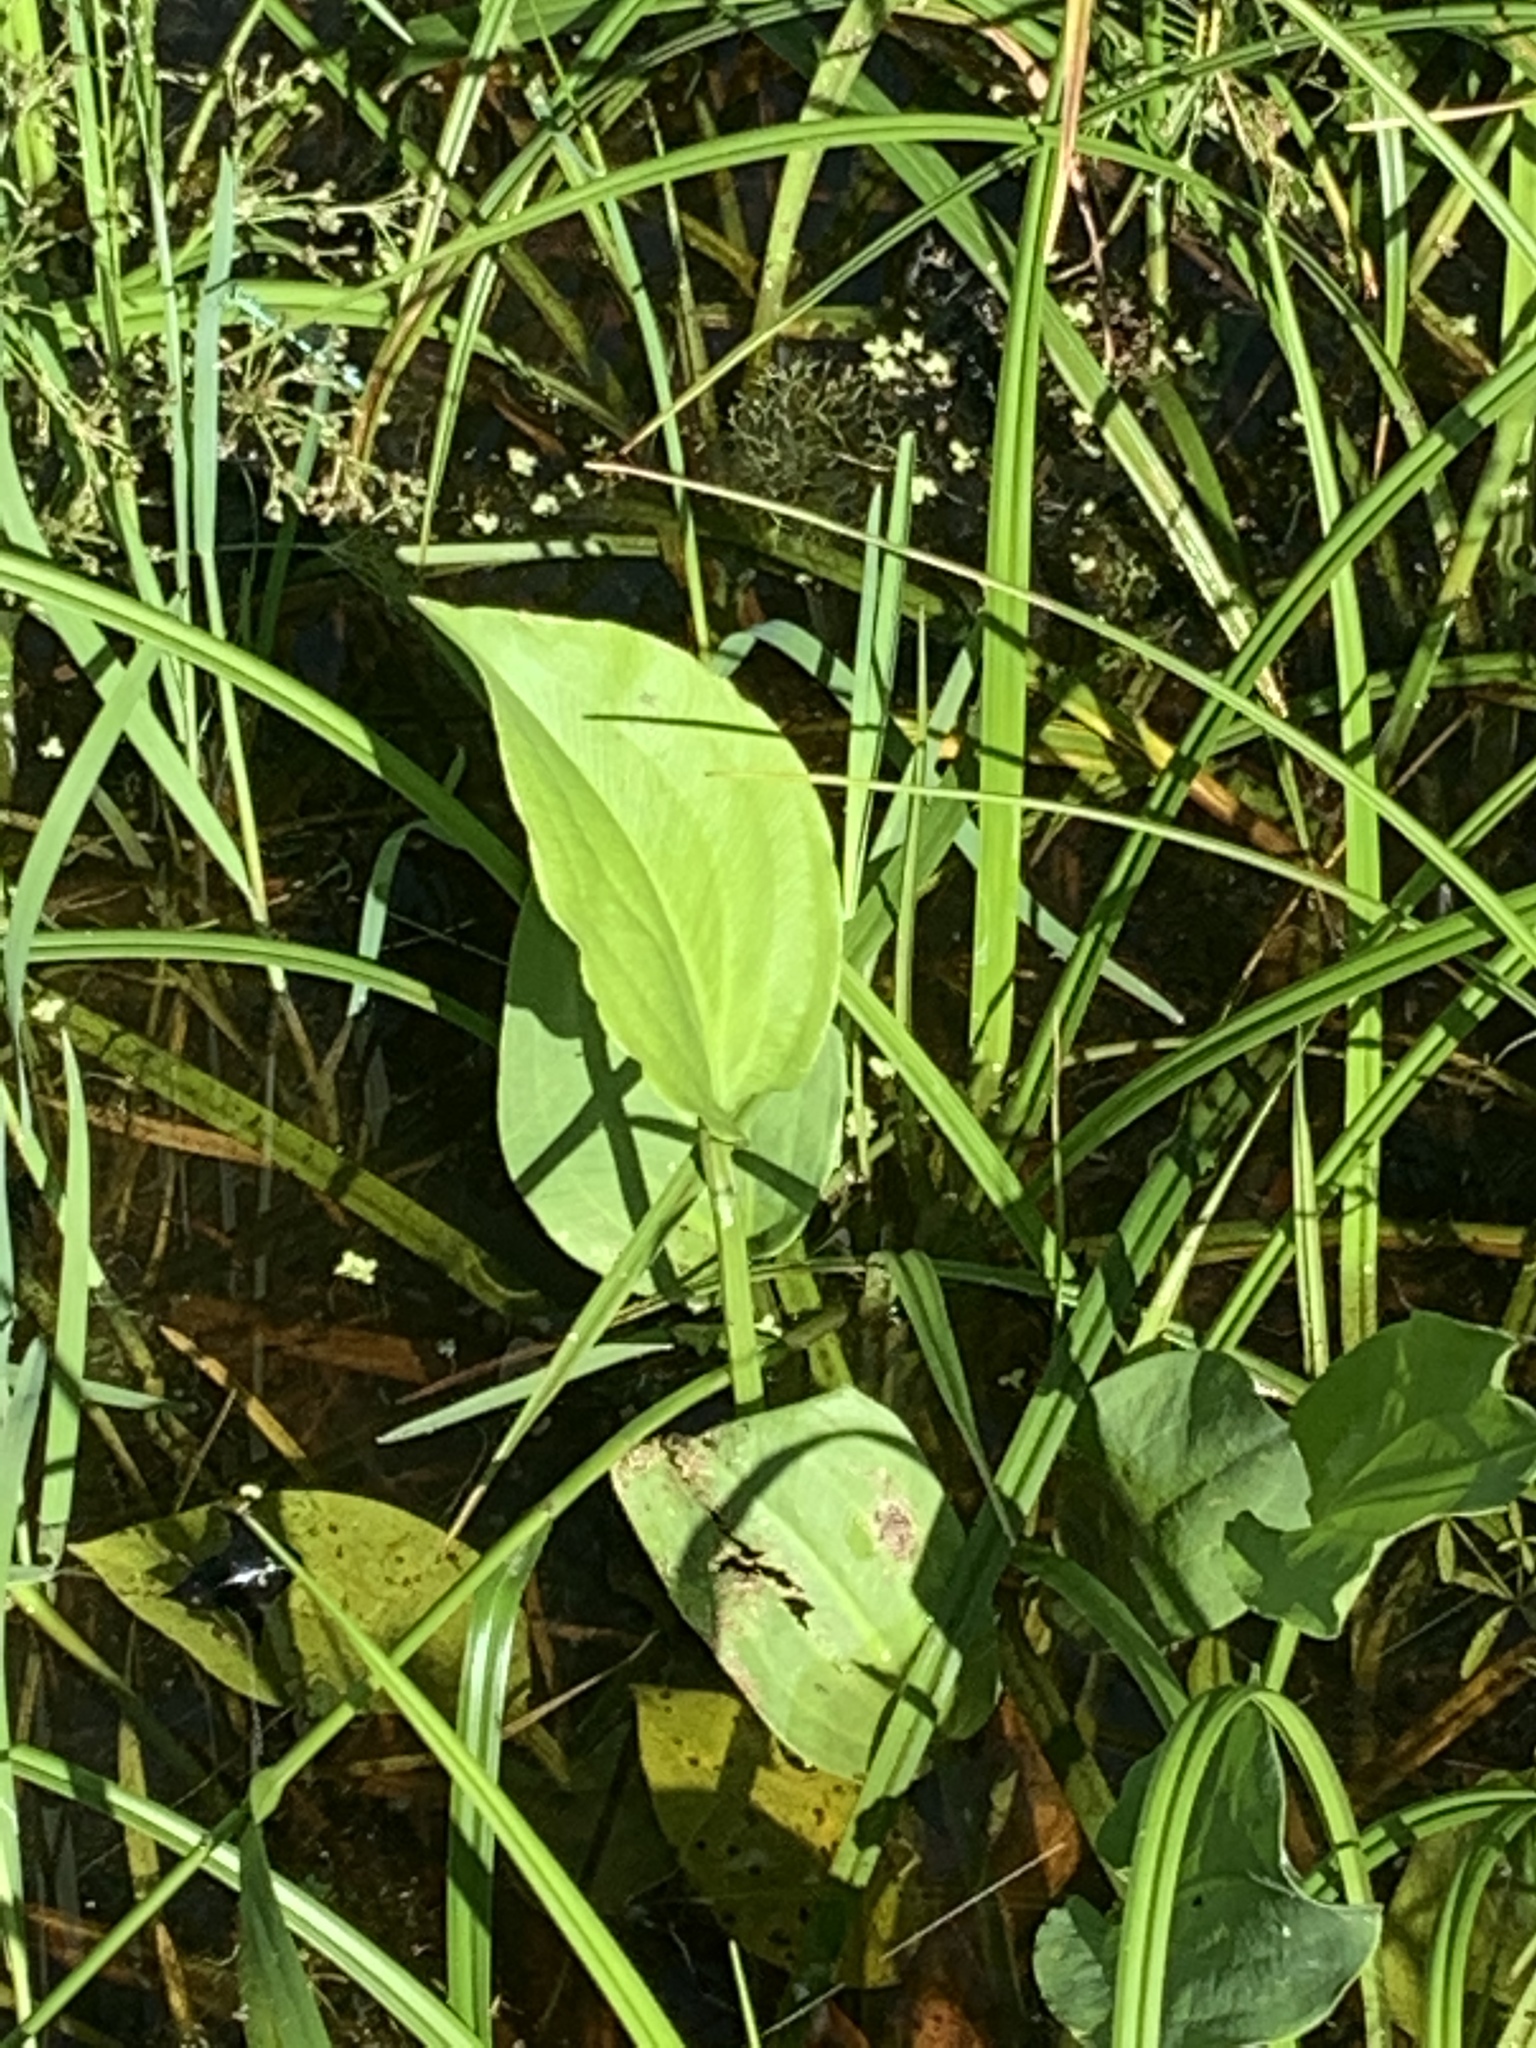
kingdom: Plantae
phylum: Tracheophyta
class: Liliopsida
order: Alismatales
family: Alismataceae
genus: Alisma
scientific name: Alisma plantago-aquatica
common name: Water-plantain
